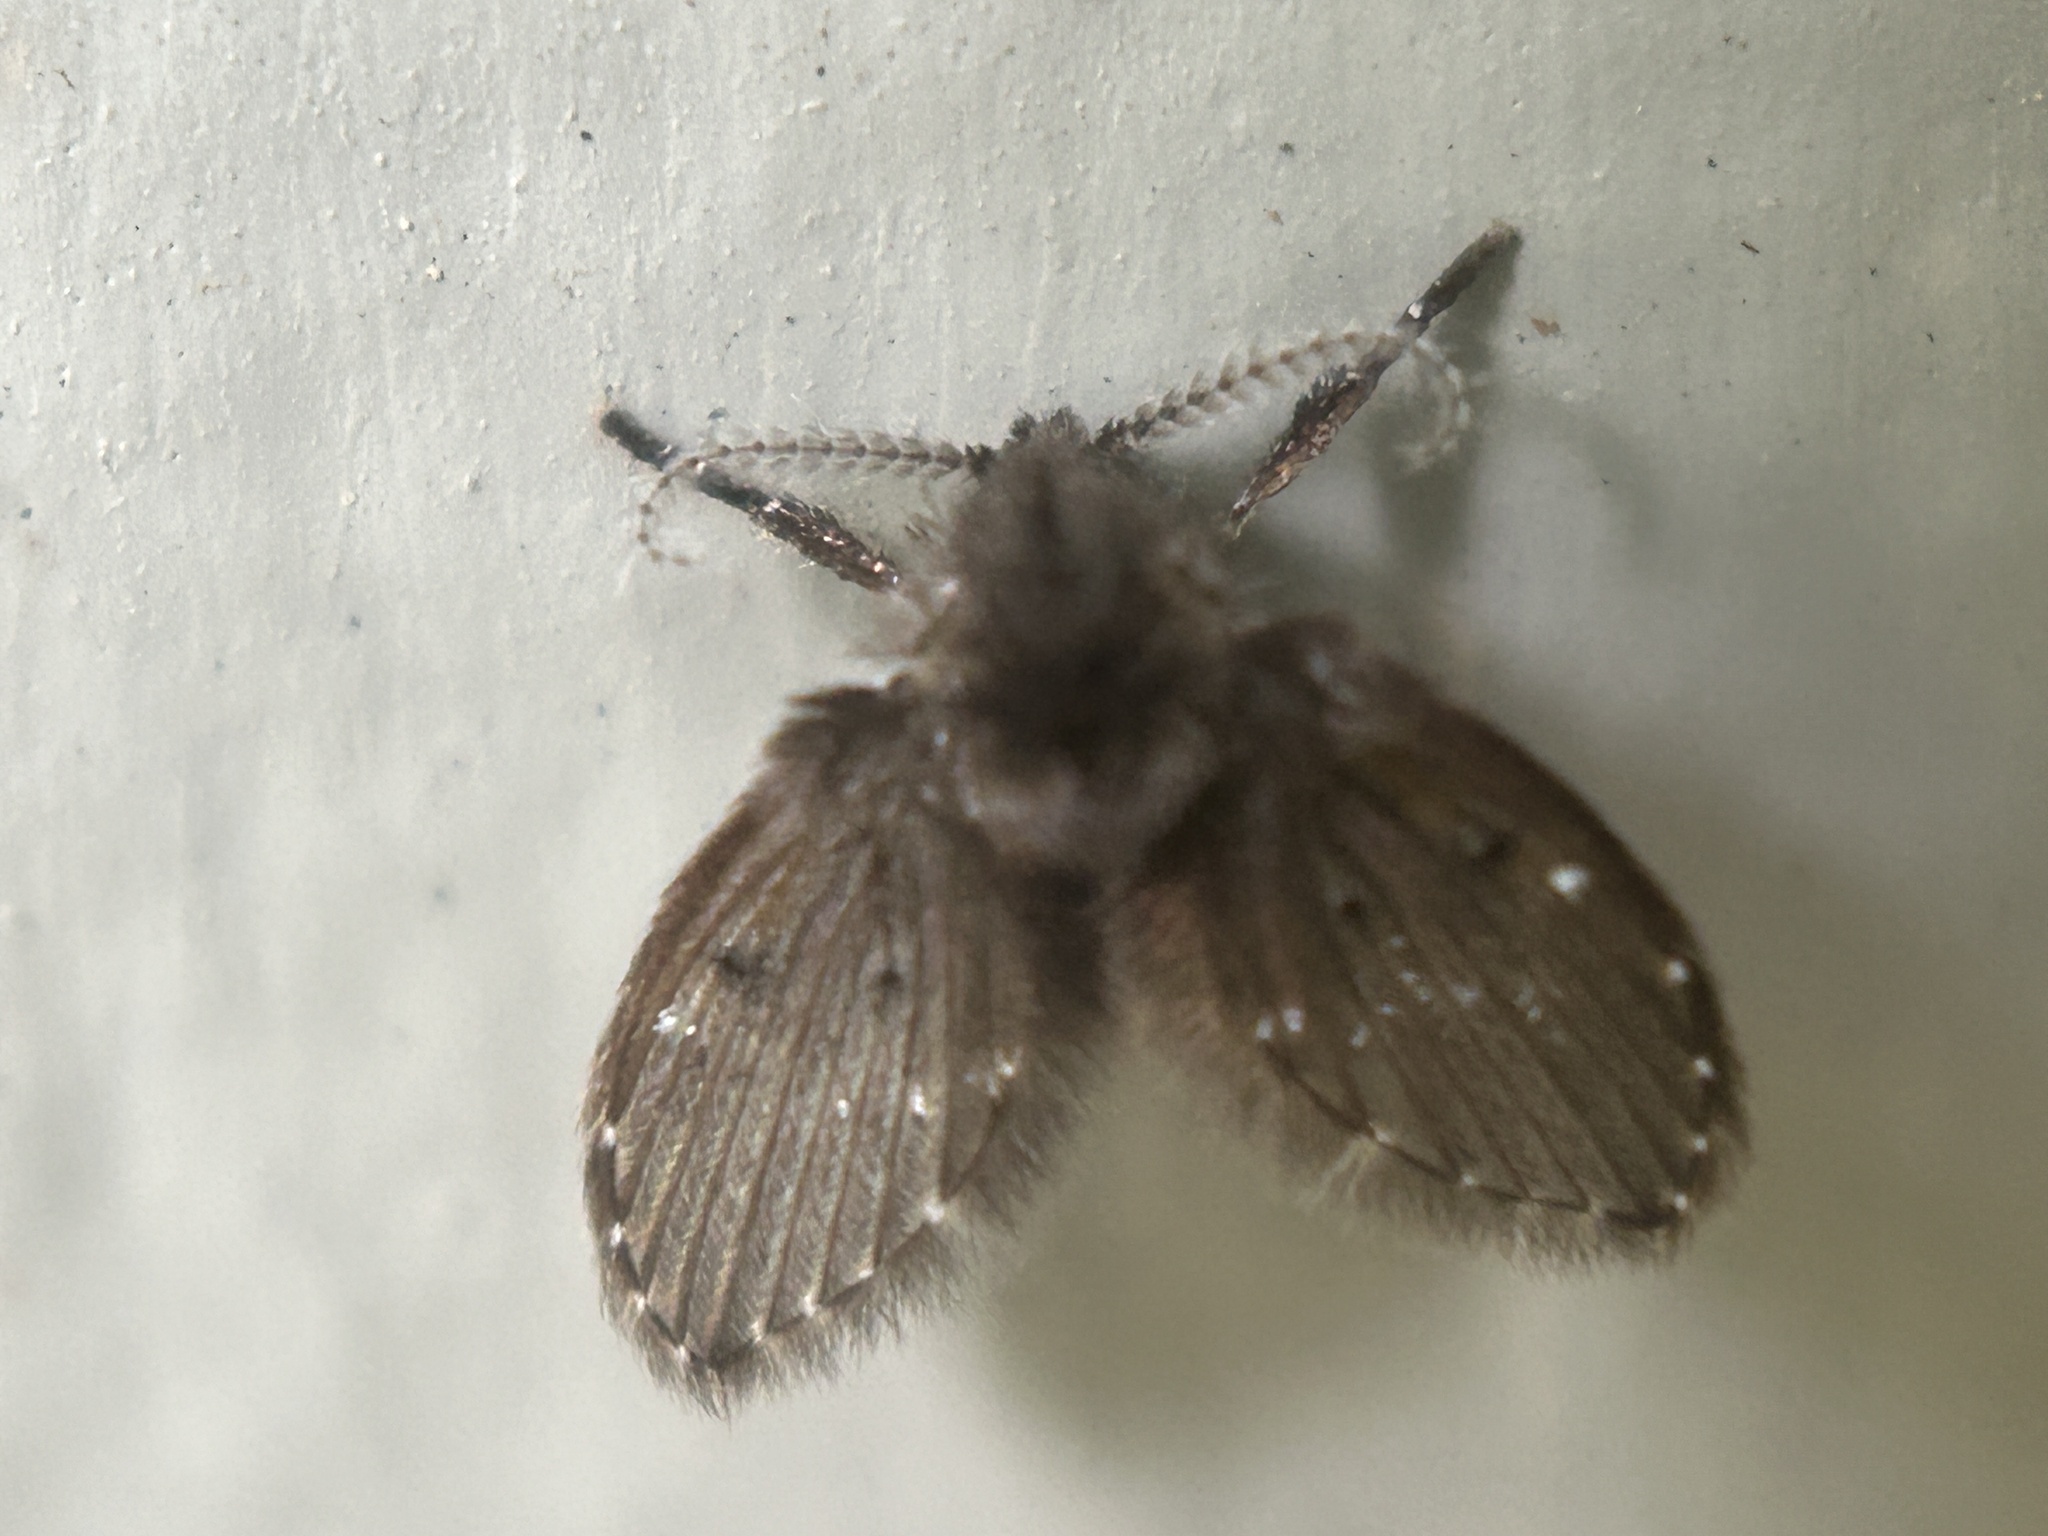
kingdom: Animalia
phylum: Arthropoda
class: Insecta
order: Diptera
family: Psychodidae
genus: Clogmia
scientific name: Clogmia albipunctatus
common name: White-spotted moth fly
